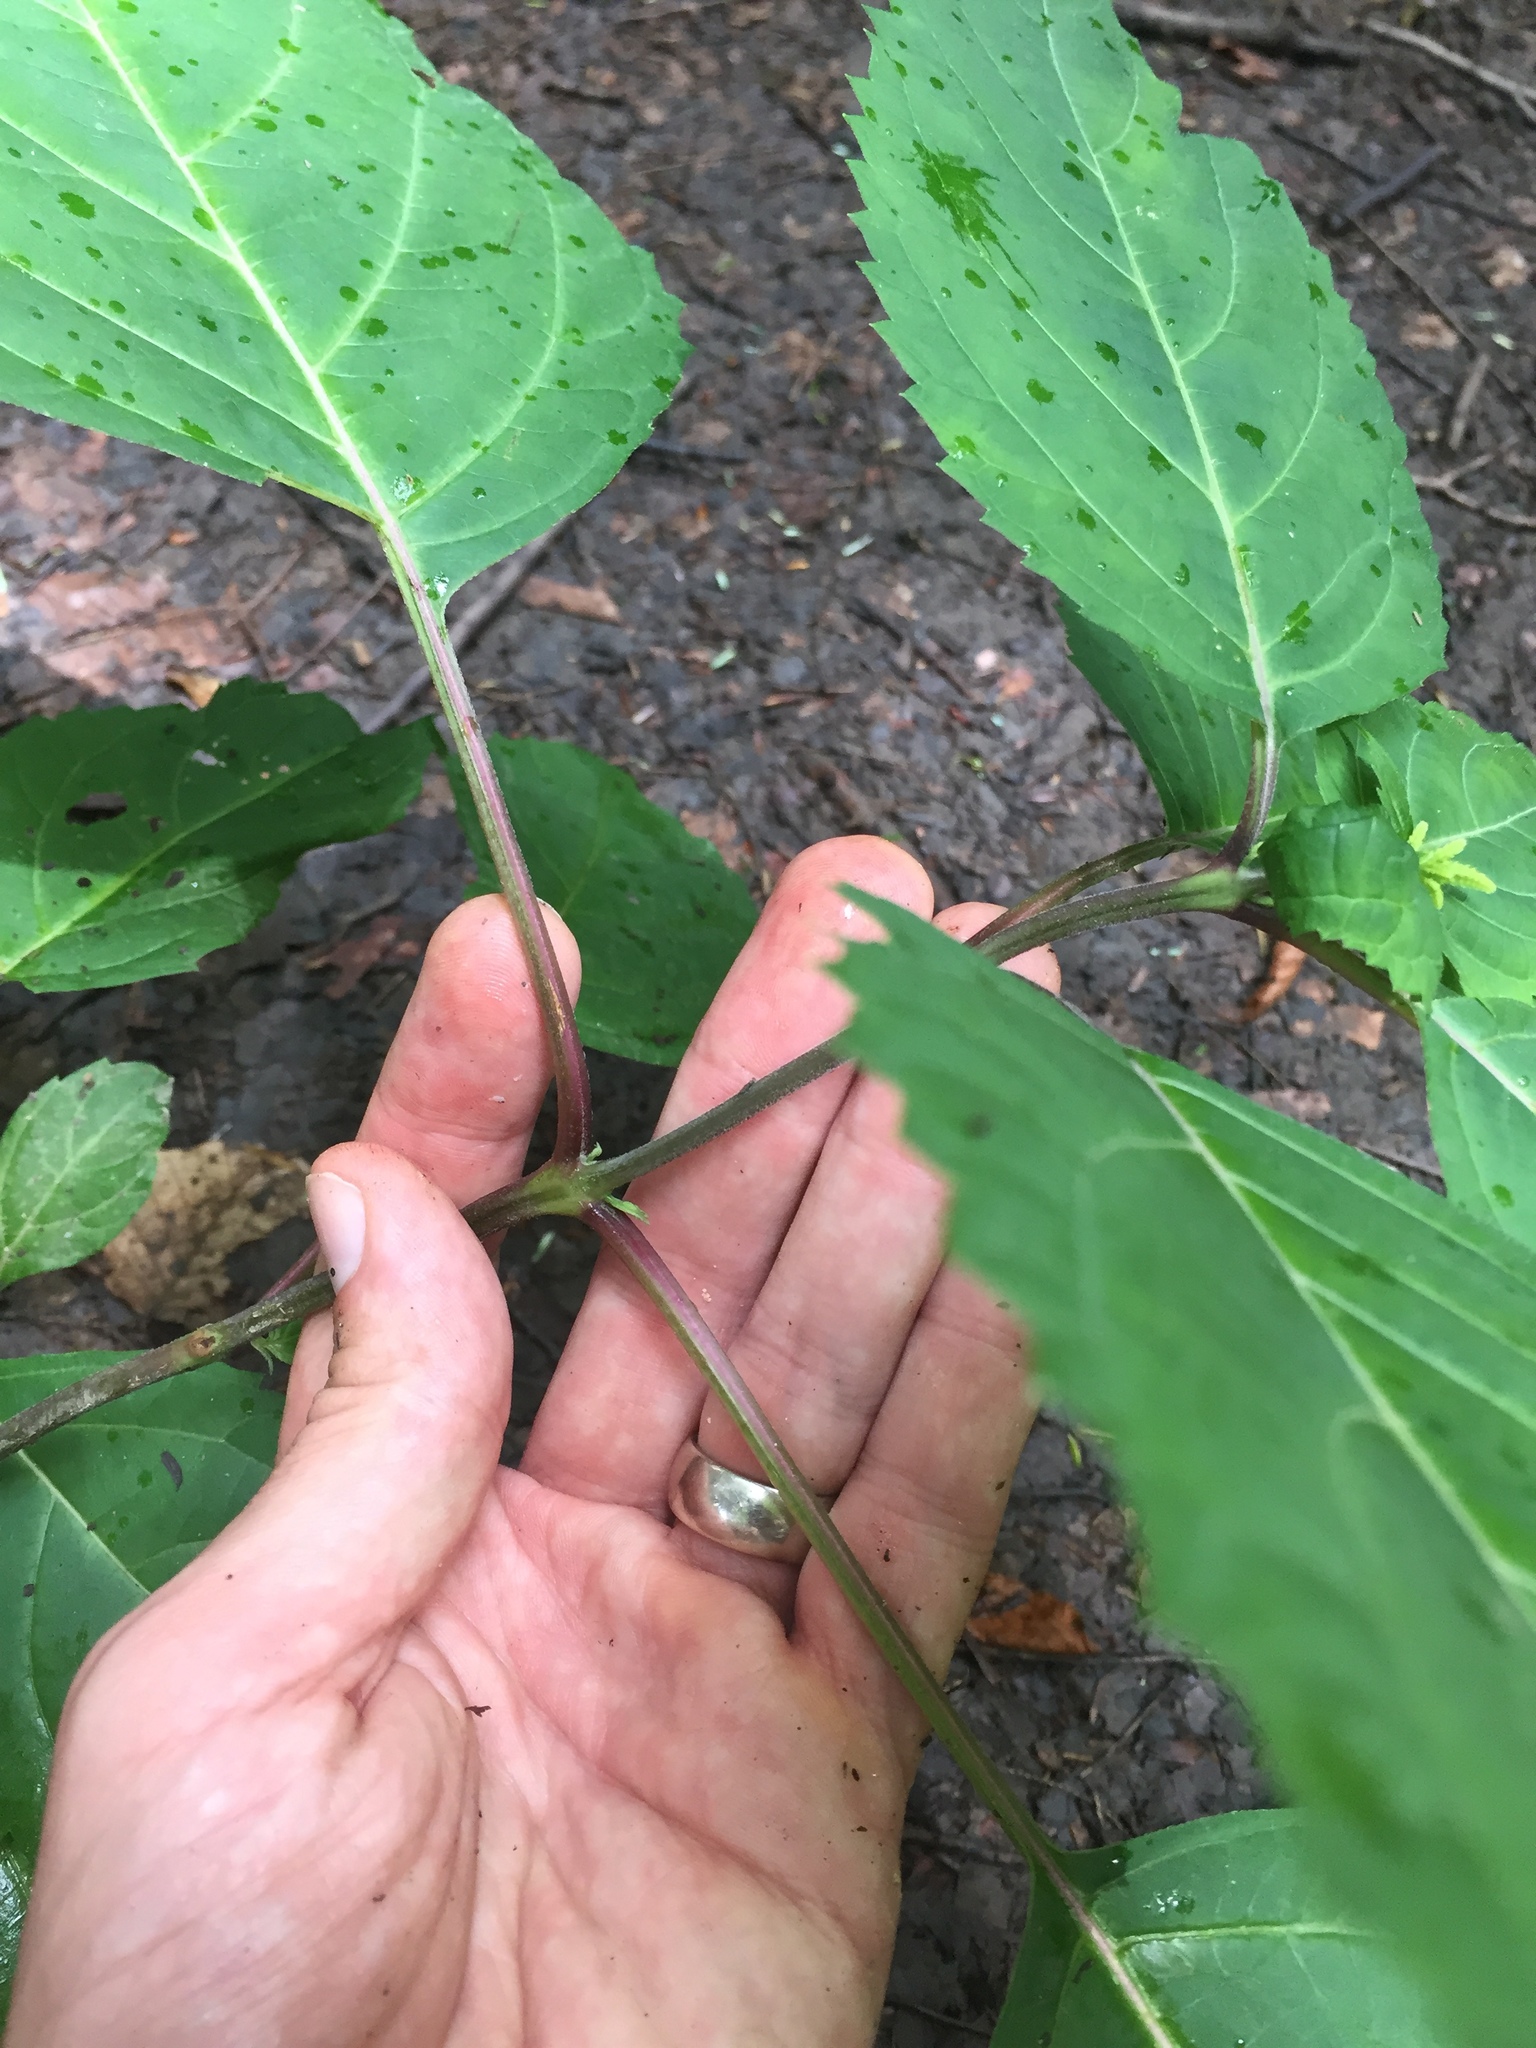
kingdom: Plantae
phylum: Tracheophyta
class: Magnoliopsida
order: Lamiales
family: Lamiaceae
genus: Collinsonia
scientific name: Collinsonia canadensis
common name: Northern horsebalm
